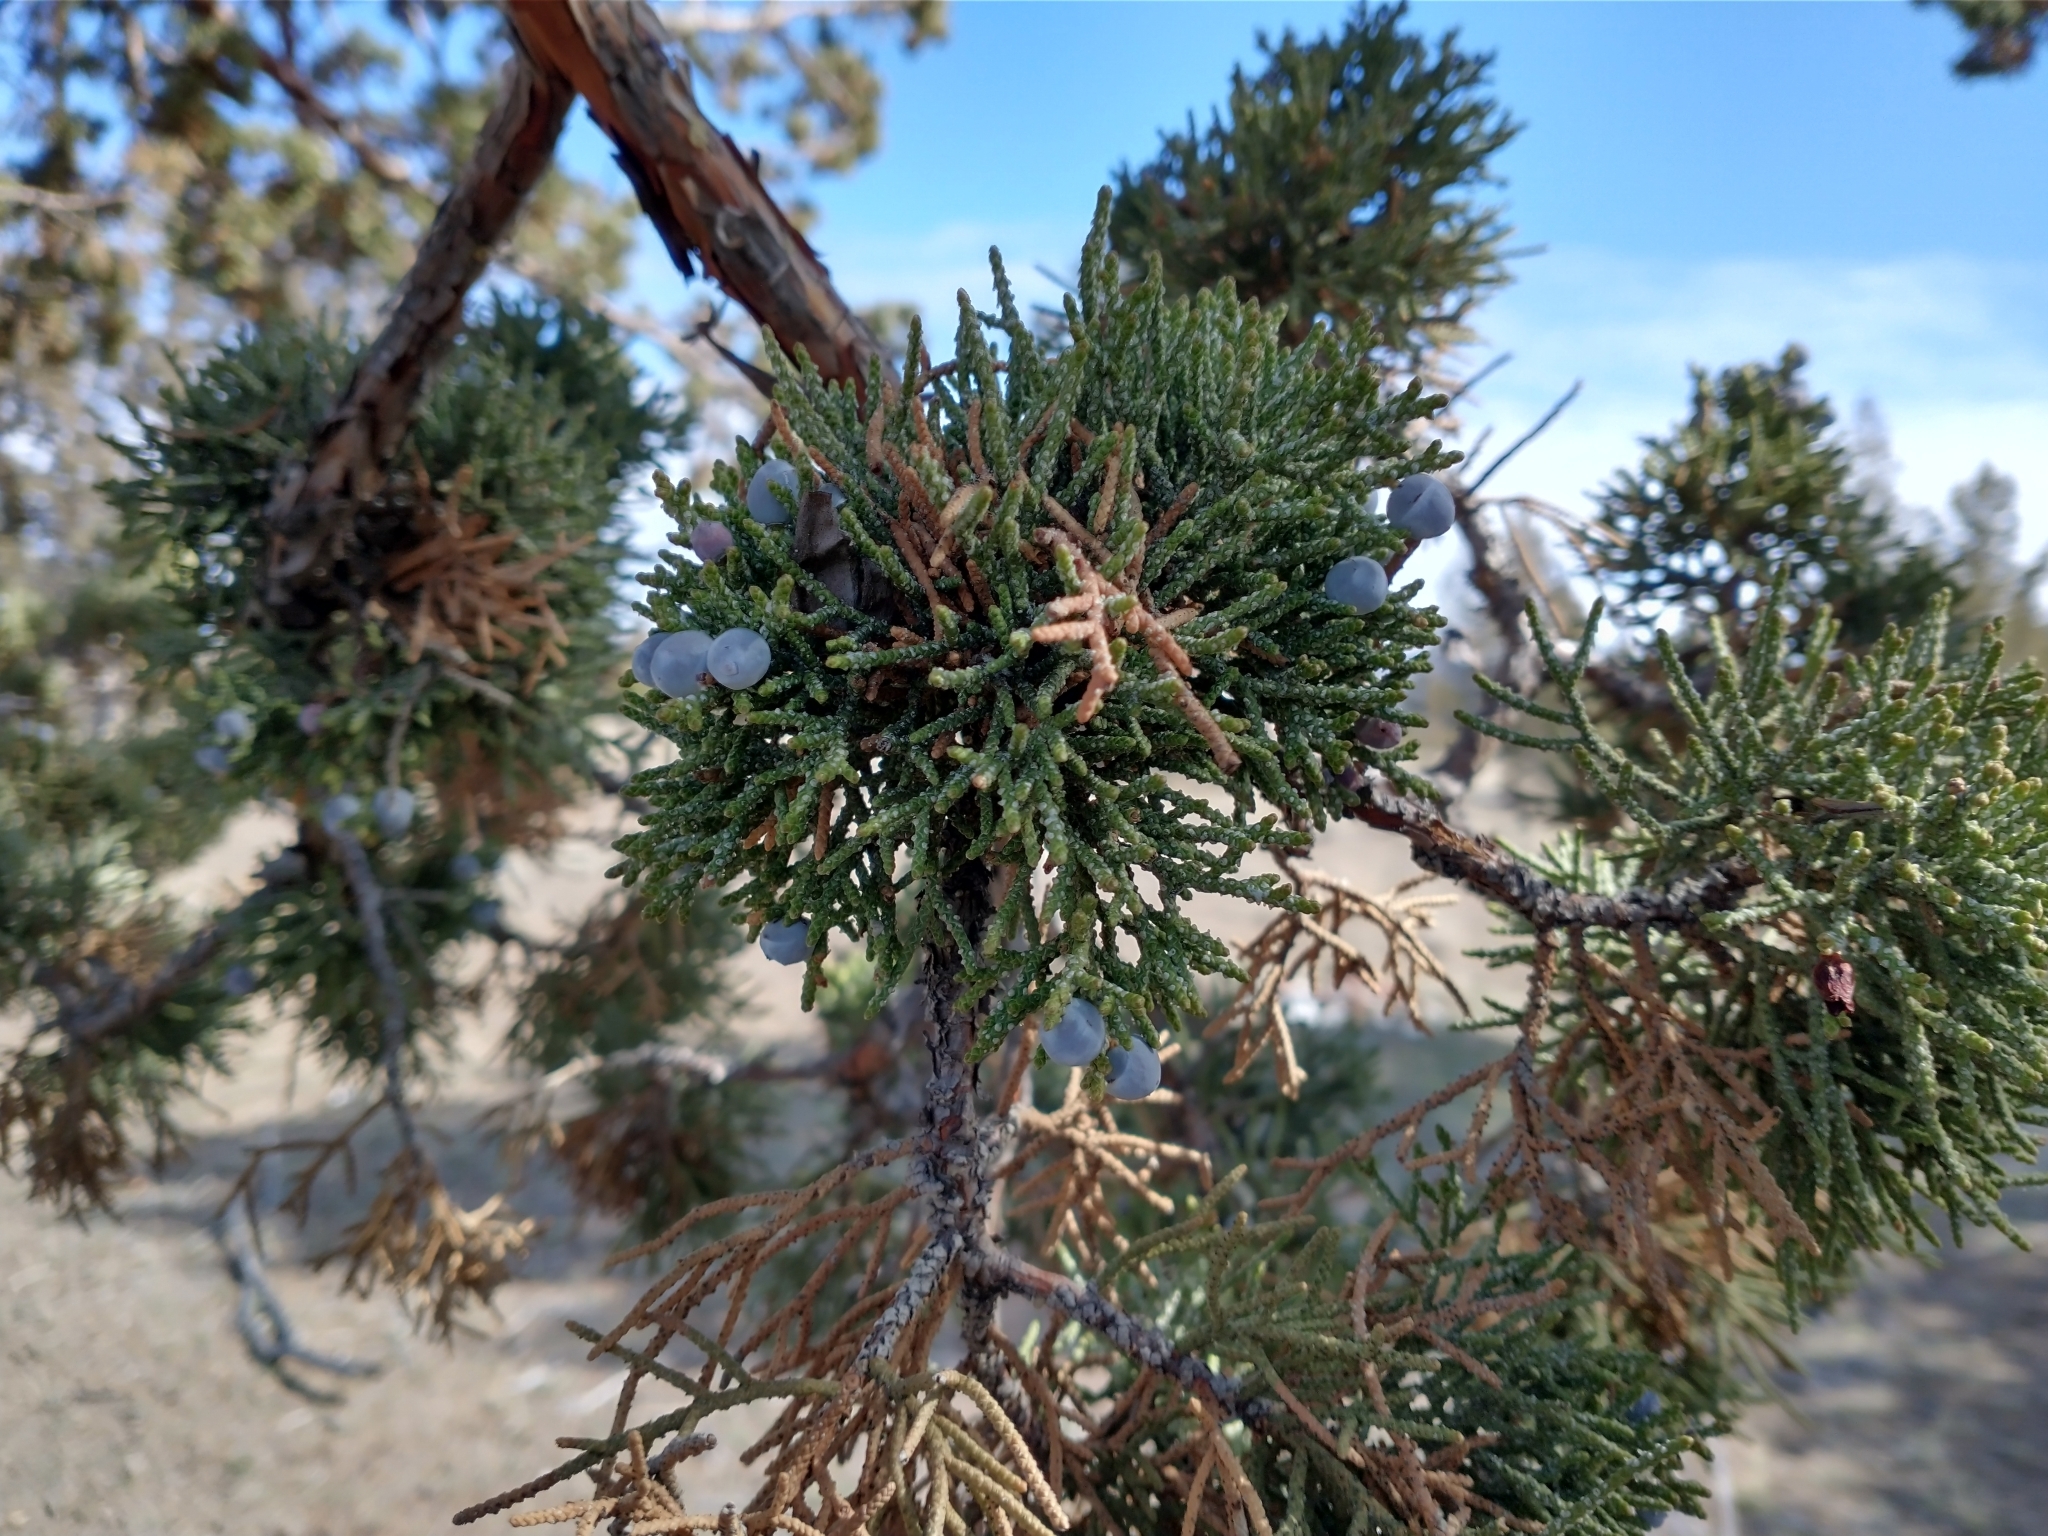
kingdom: Plantae
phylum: Tracheophyta
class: Pinopsida
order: Pinales
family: Cupressaceae
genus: Juniperus
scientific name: Juniperus occidentalis
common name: Western juniper
